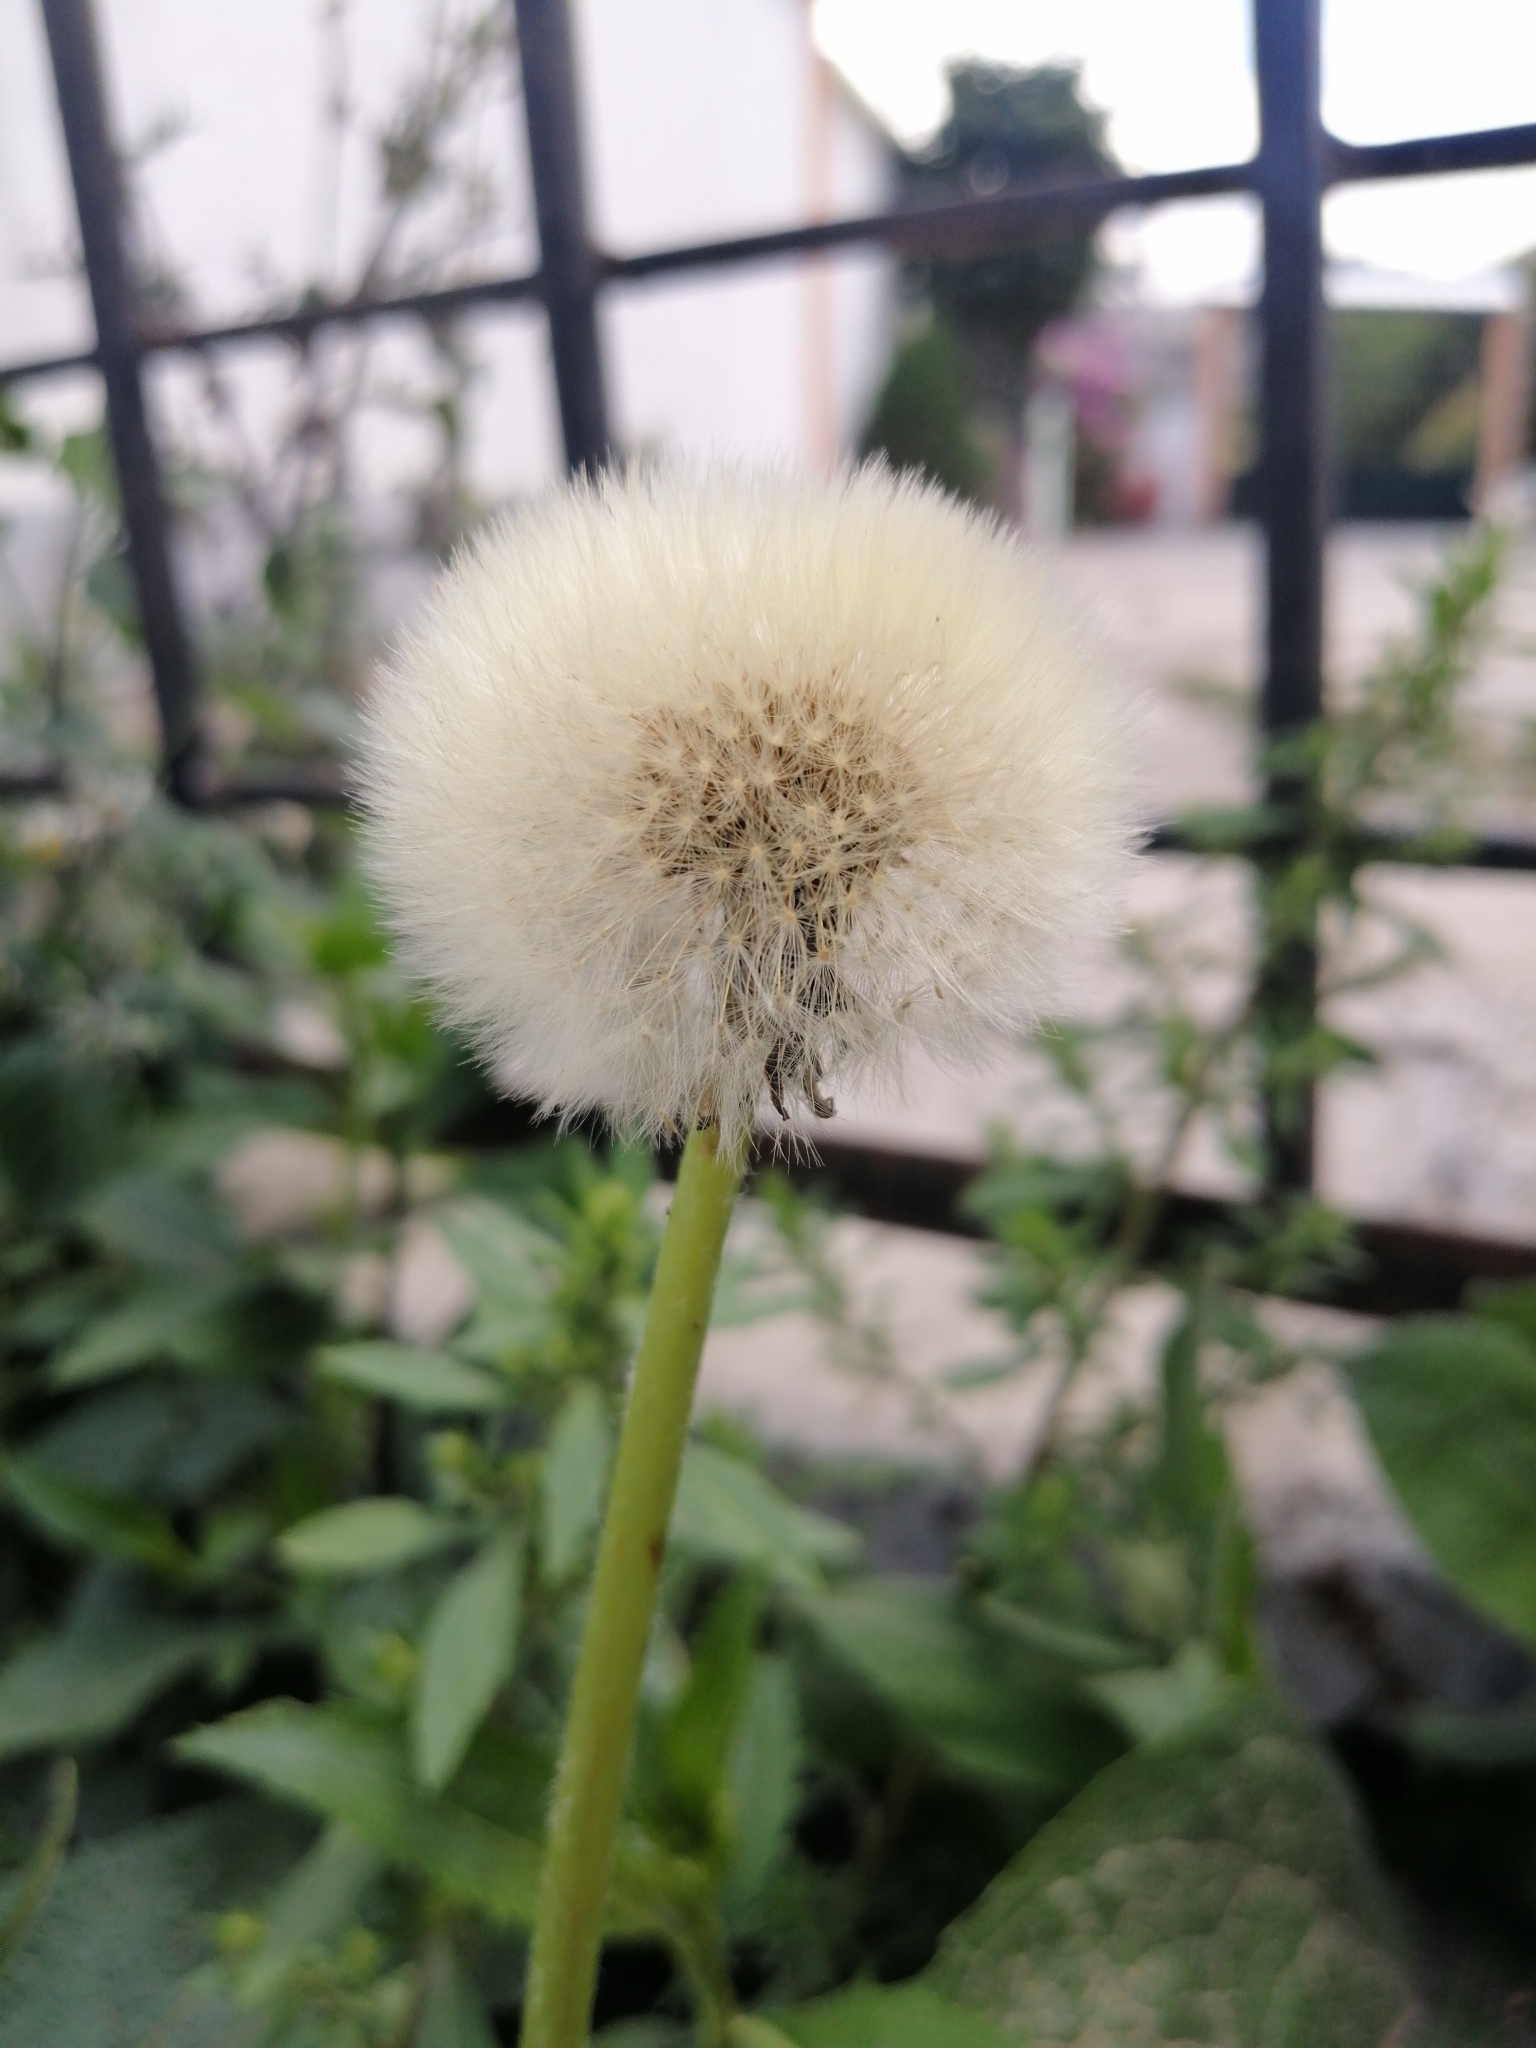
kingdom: Plantae
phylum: Tracheophyta
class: Magnoliopsida
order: Asterales
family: Asteraceae
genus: Taraxacum
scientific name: Taraxacum officinale
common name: Common dandelion
